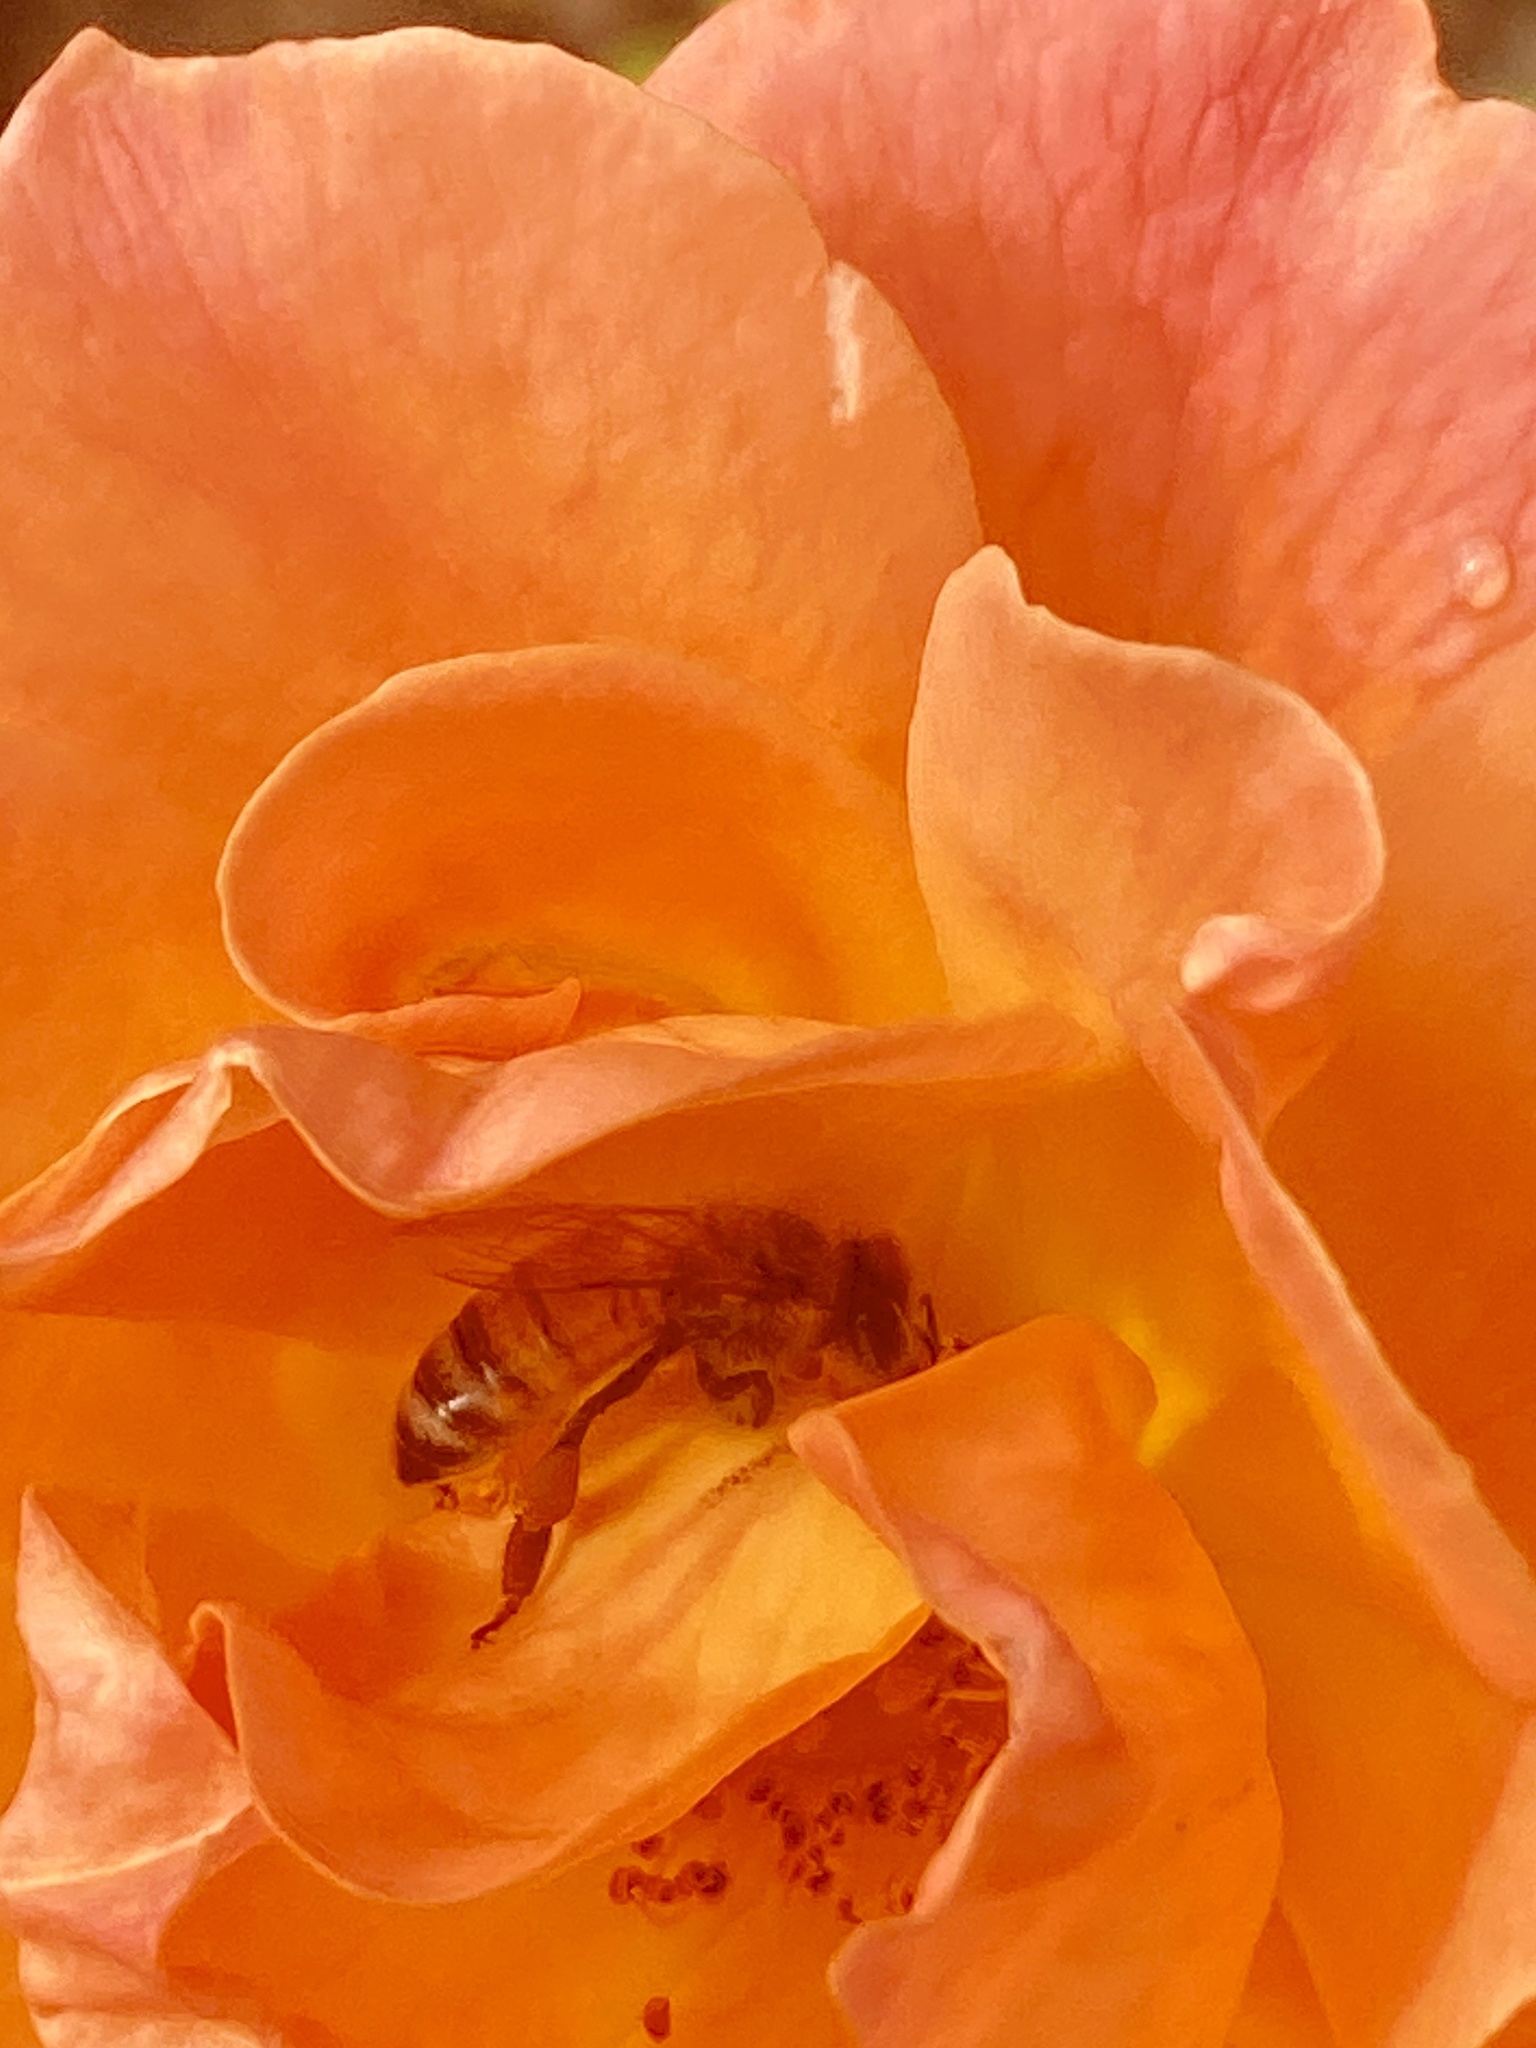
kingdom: Animalia
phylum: Arthropoda
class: Insecta
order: Hymenoptera
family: Apidae
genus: Apis
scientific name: Apis mellifera
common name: Honey bee
